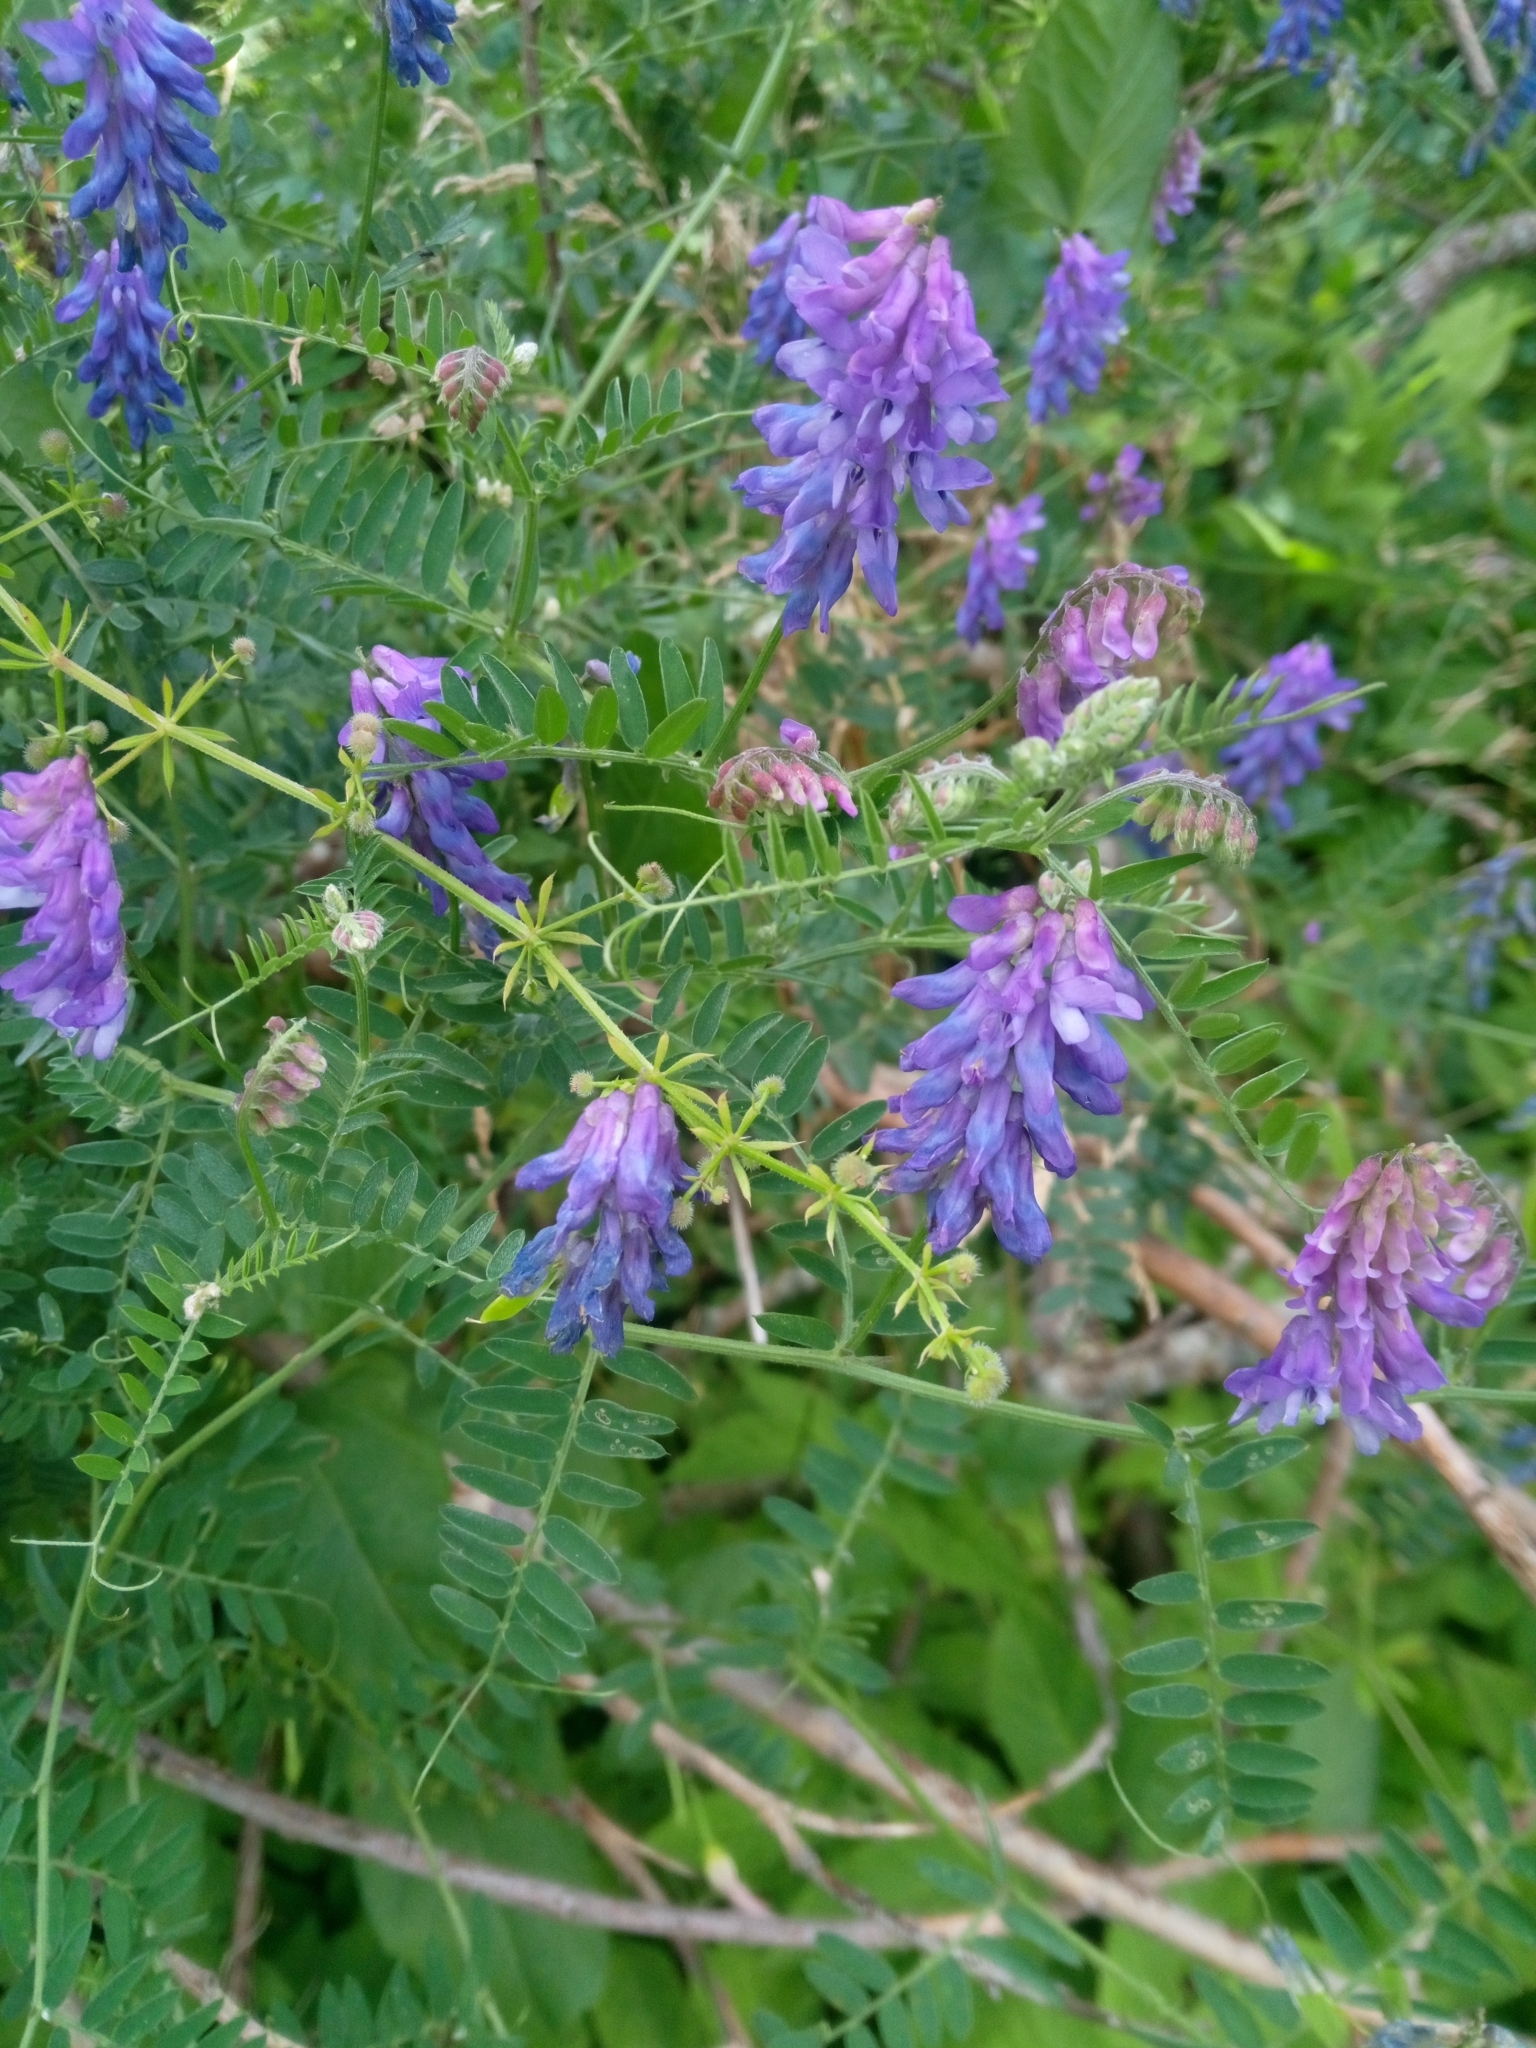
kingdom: Plantae
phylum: Tracheophyta
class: Magnoliopsida
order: Fabales
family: Fabaceae
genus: Vicia
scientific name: Vicia cracca
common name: Bird vetch
